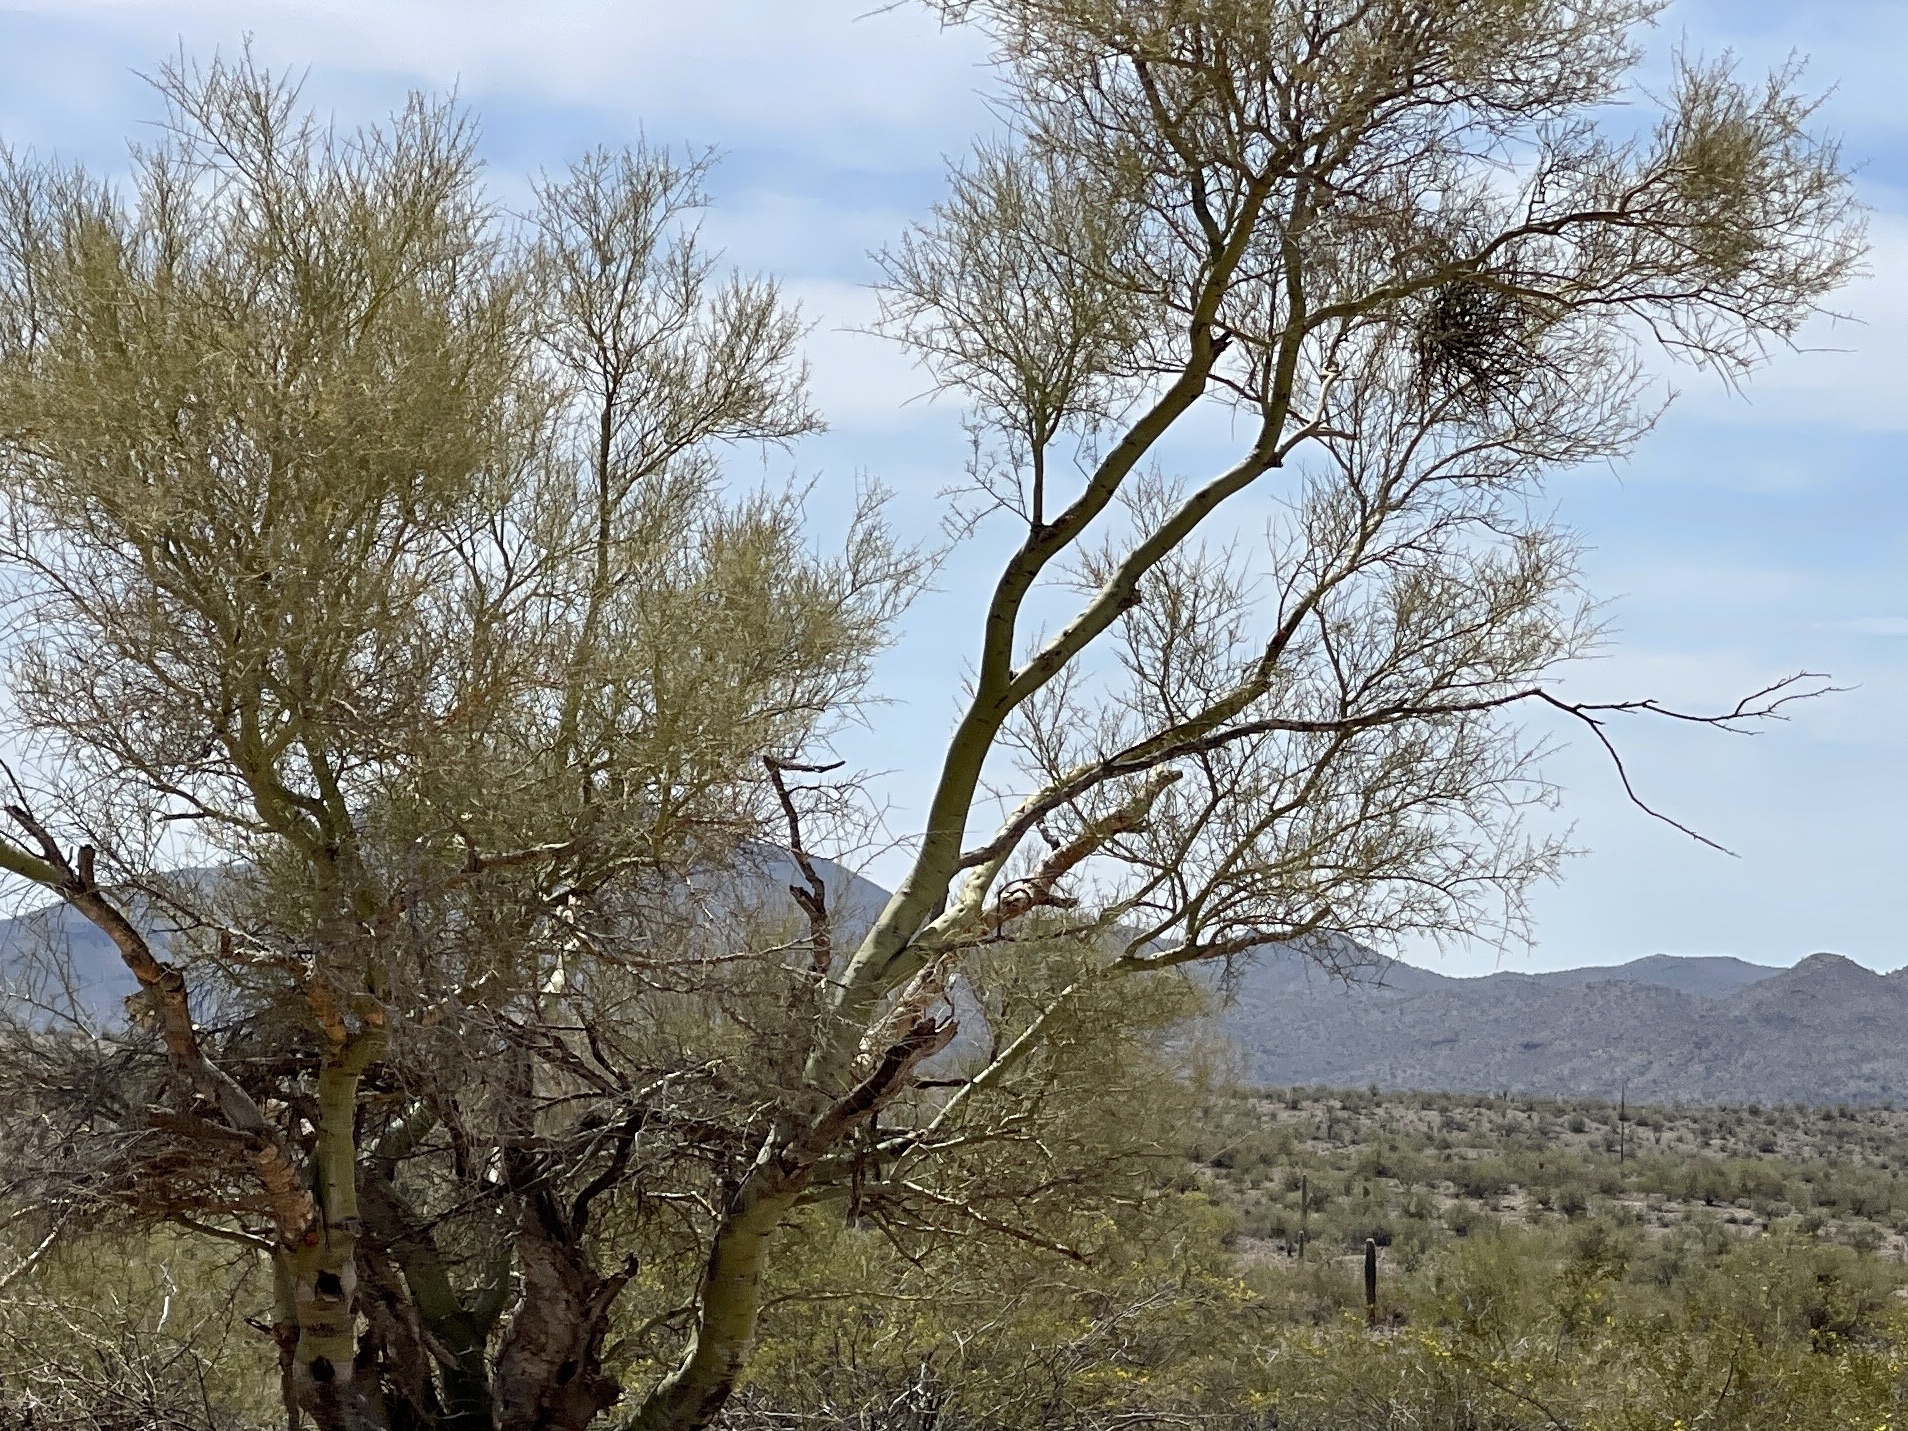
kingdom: Plantae
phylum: Tracheophyta
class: Magnoliopsida
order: Fabales
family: Fabaceae
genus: Parkinsonia
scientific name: Parkinsonia microphylla
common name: Yellow paloverde
